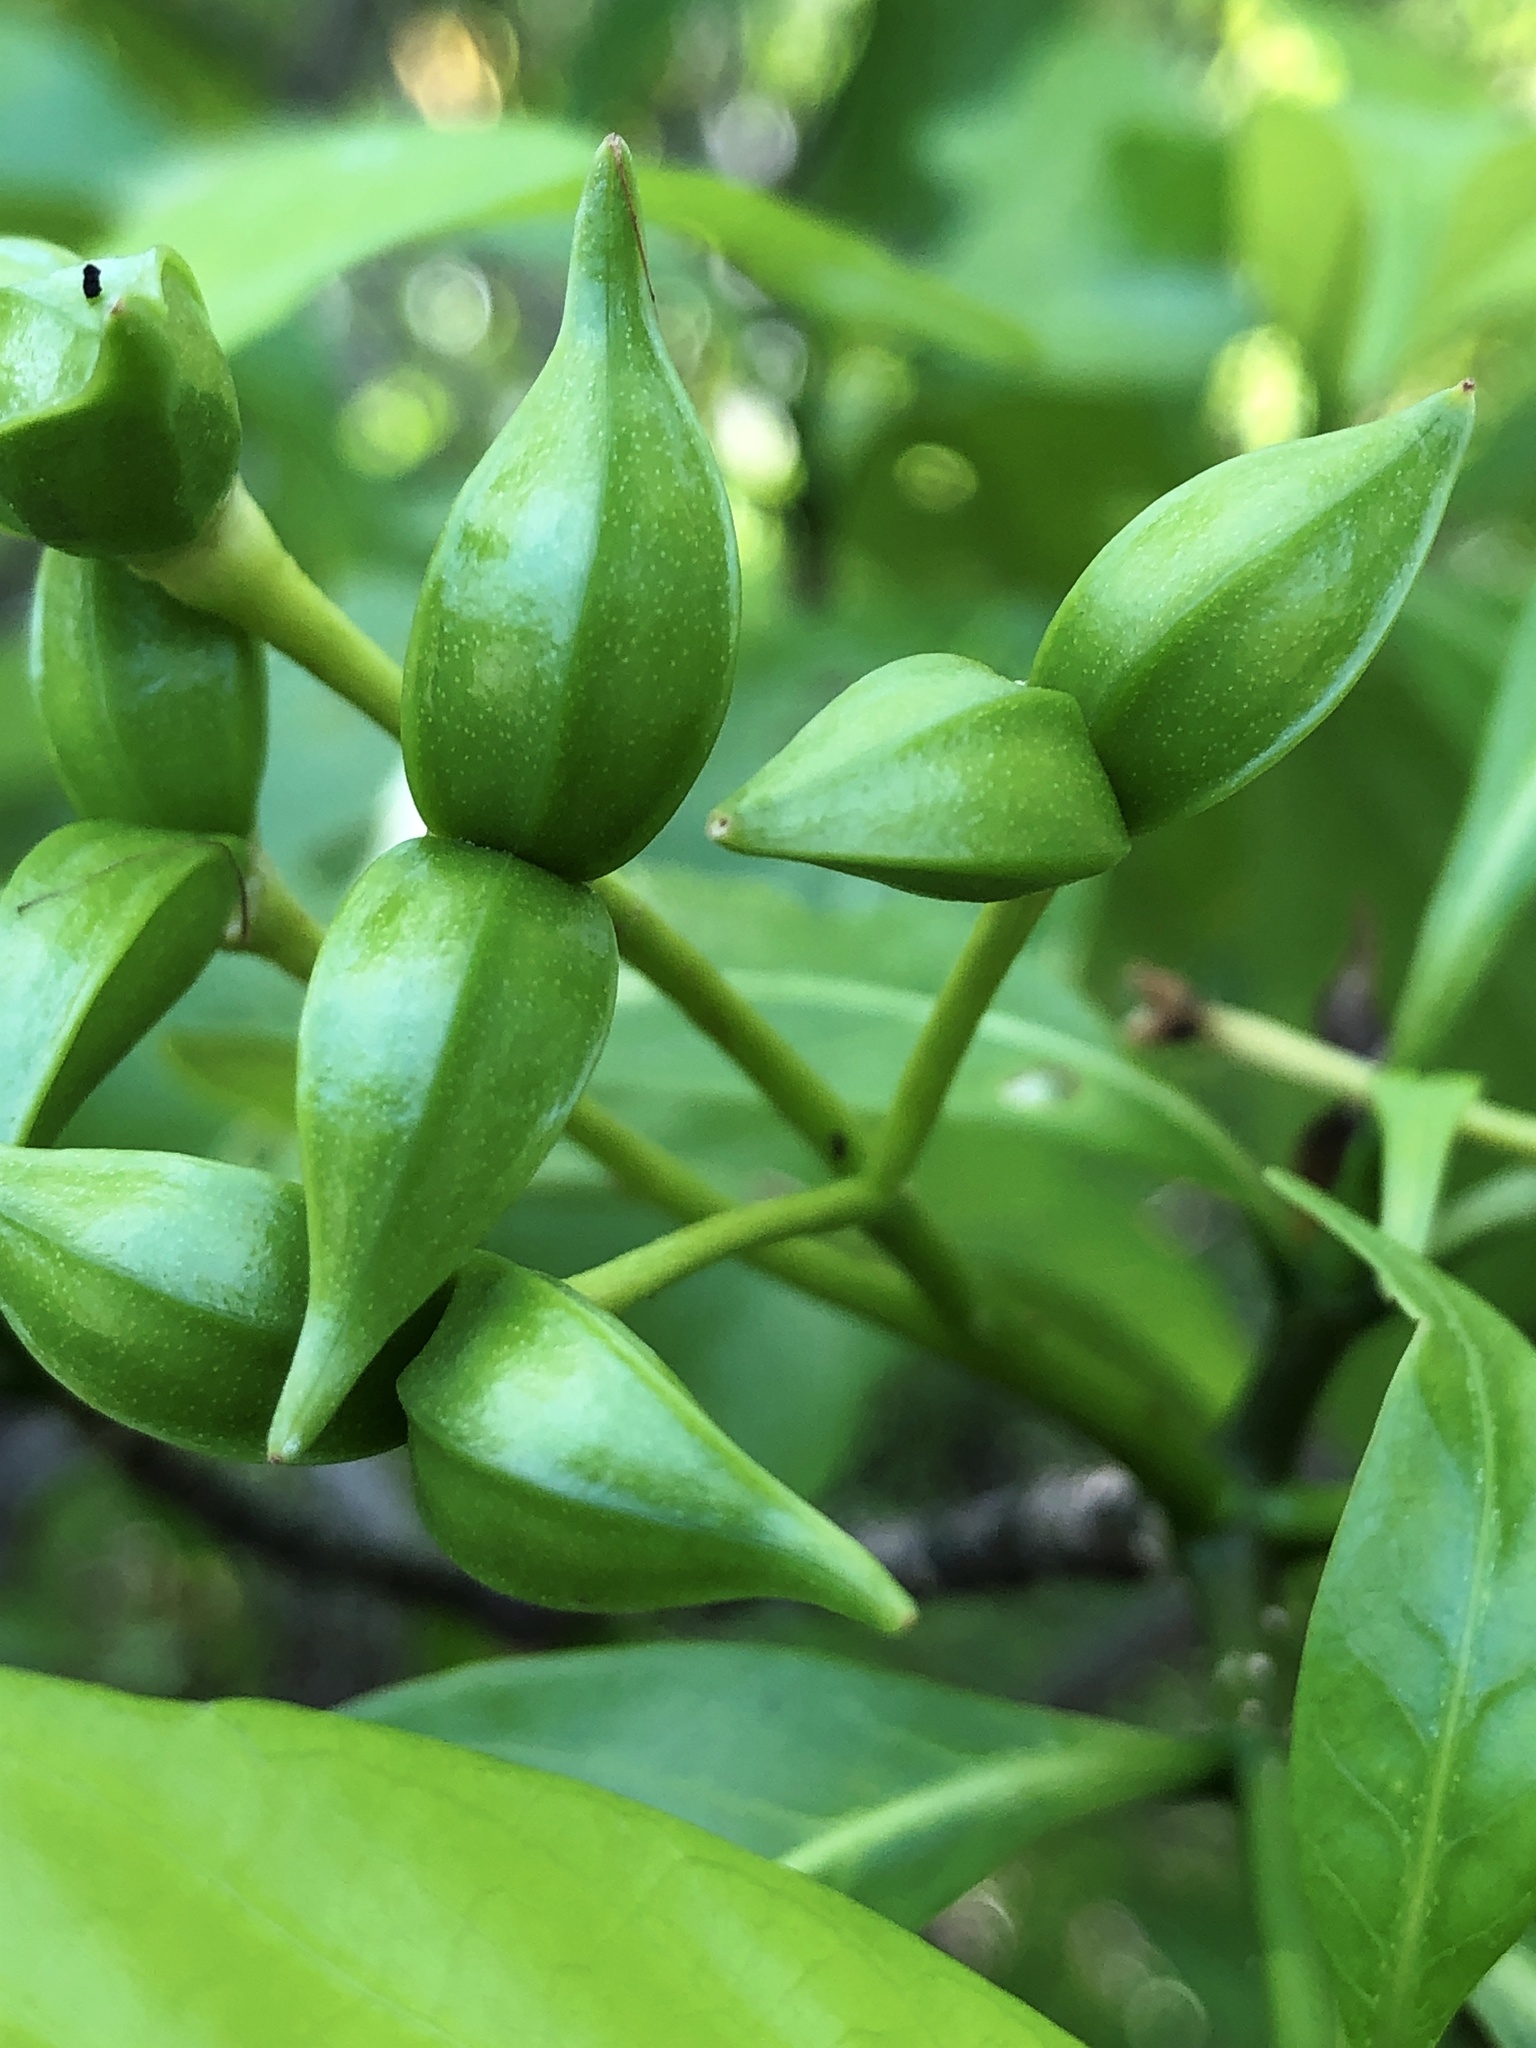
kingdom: Plantae
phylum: Tracheophyta
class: Magnoliopsida
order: Gentianales
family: Apocynaceae
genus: Tabernaemontana
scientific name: Tabernaemontana pandacaqui
